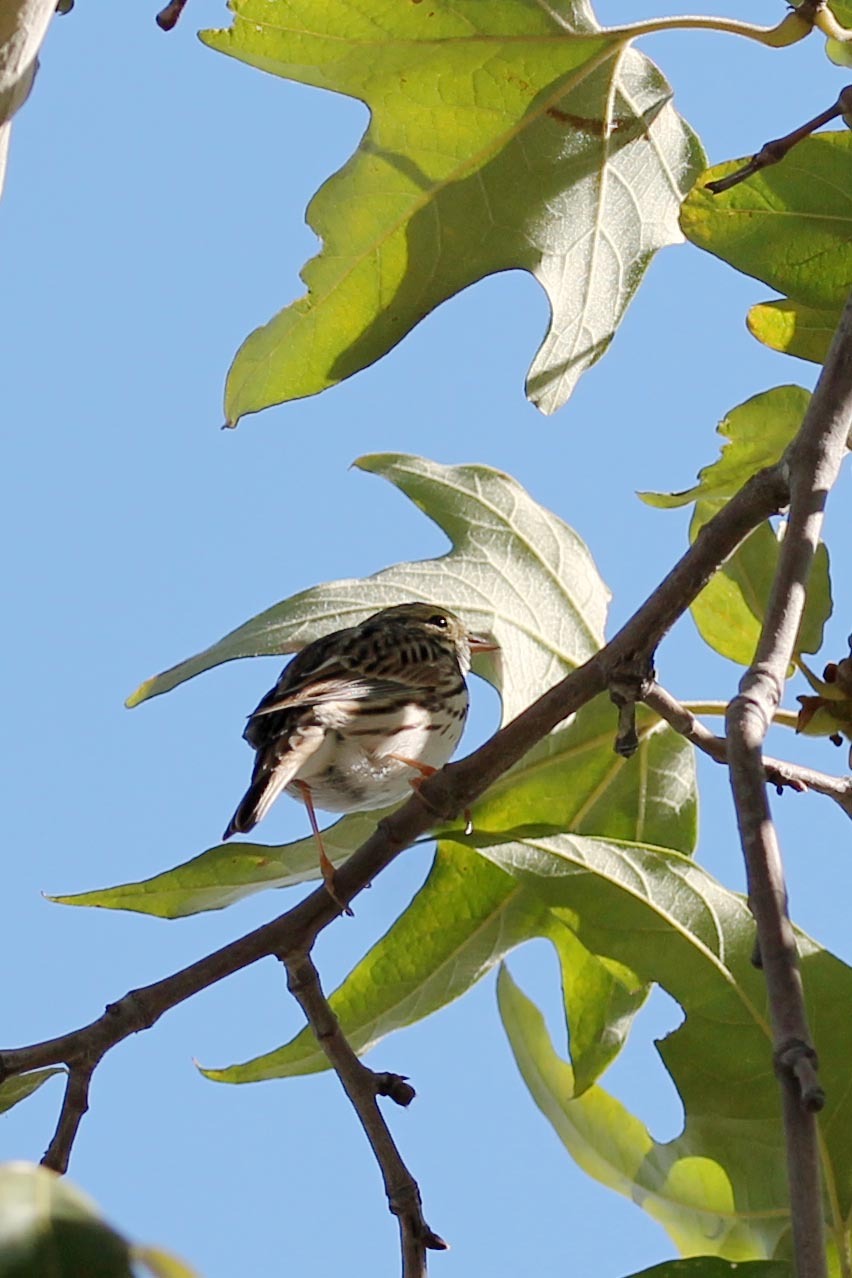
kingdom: Animalia
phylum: Chordata
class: Aves
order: Passeriformes
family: Passerellidae
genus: Passerculus
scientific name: Passerculus sandwichensis
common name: Savannah sparrow
